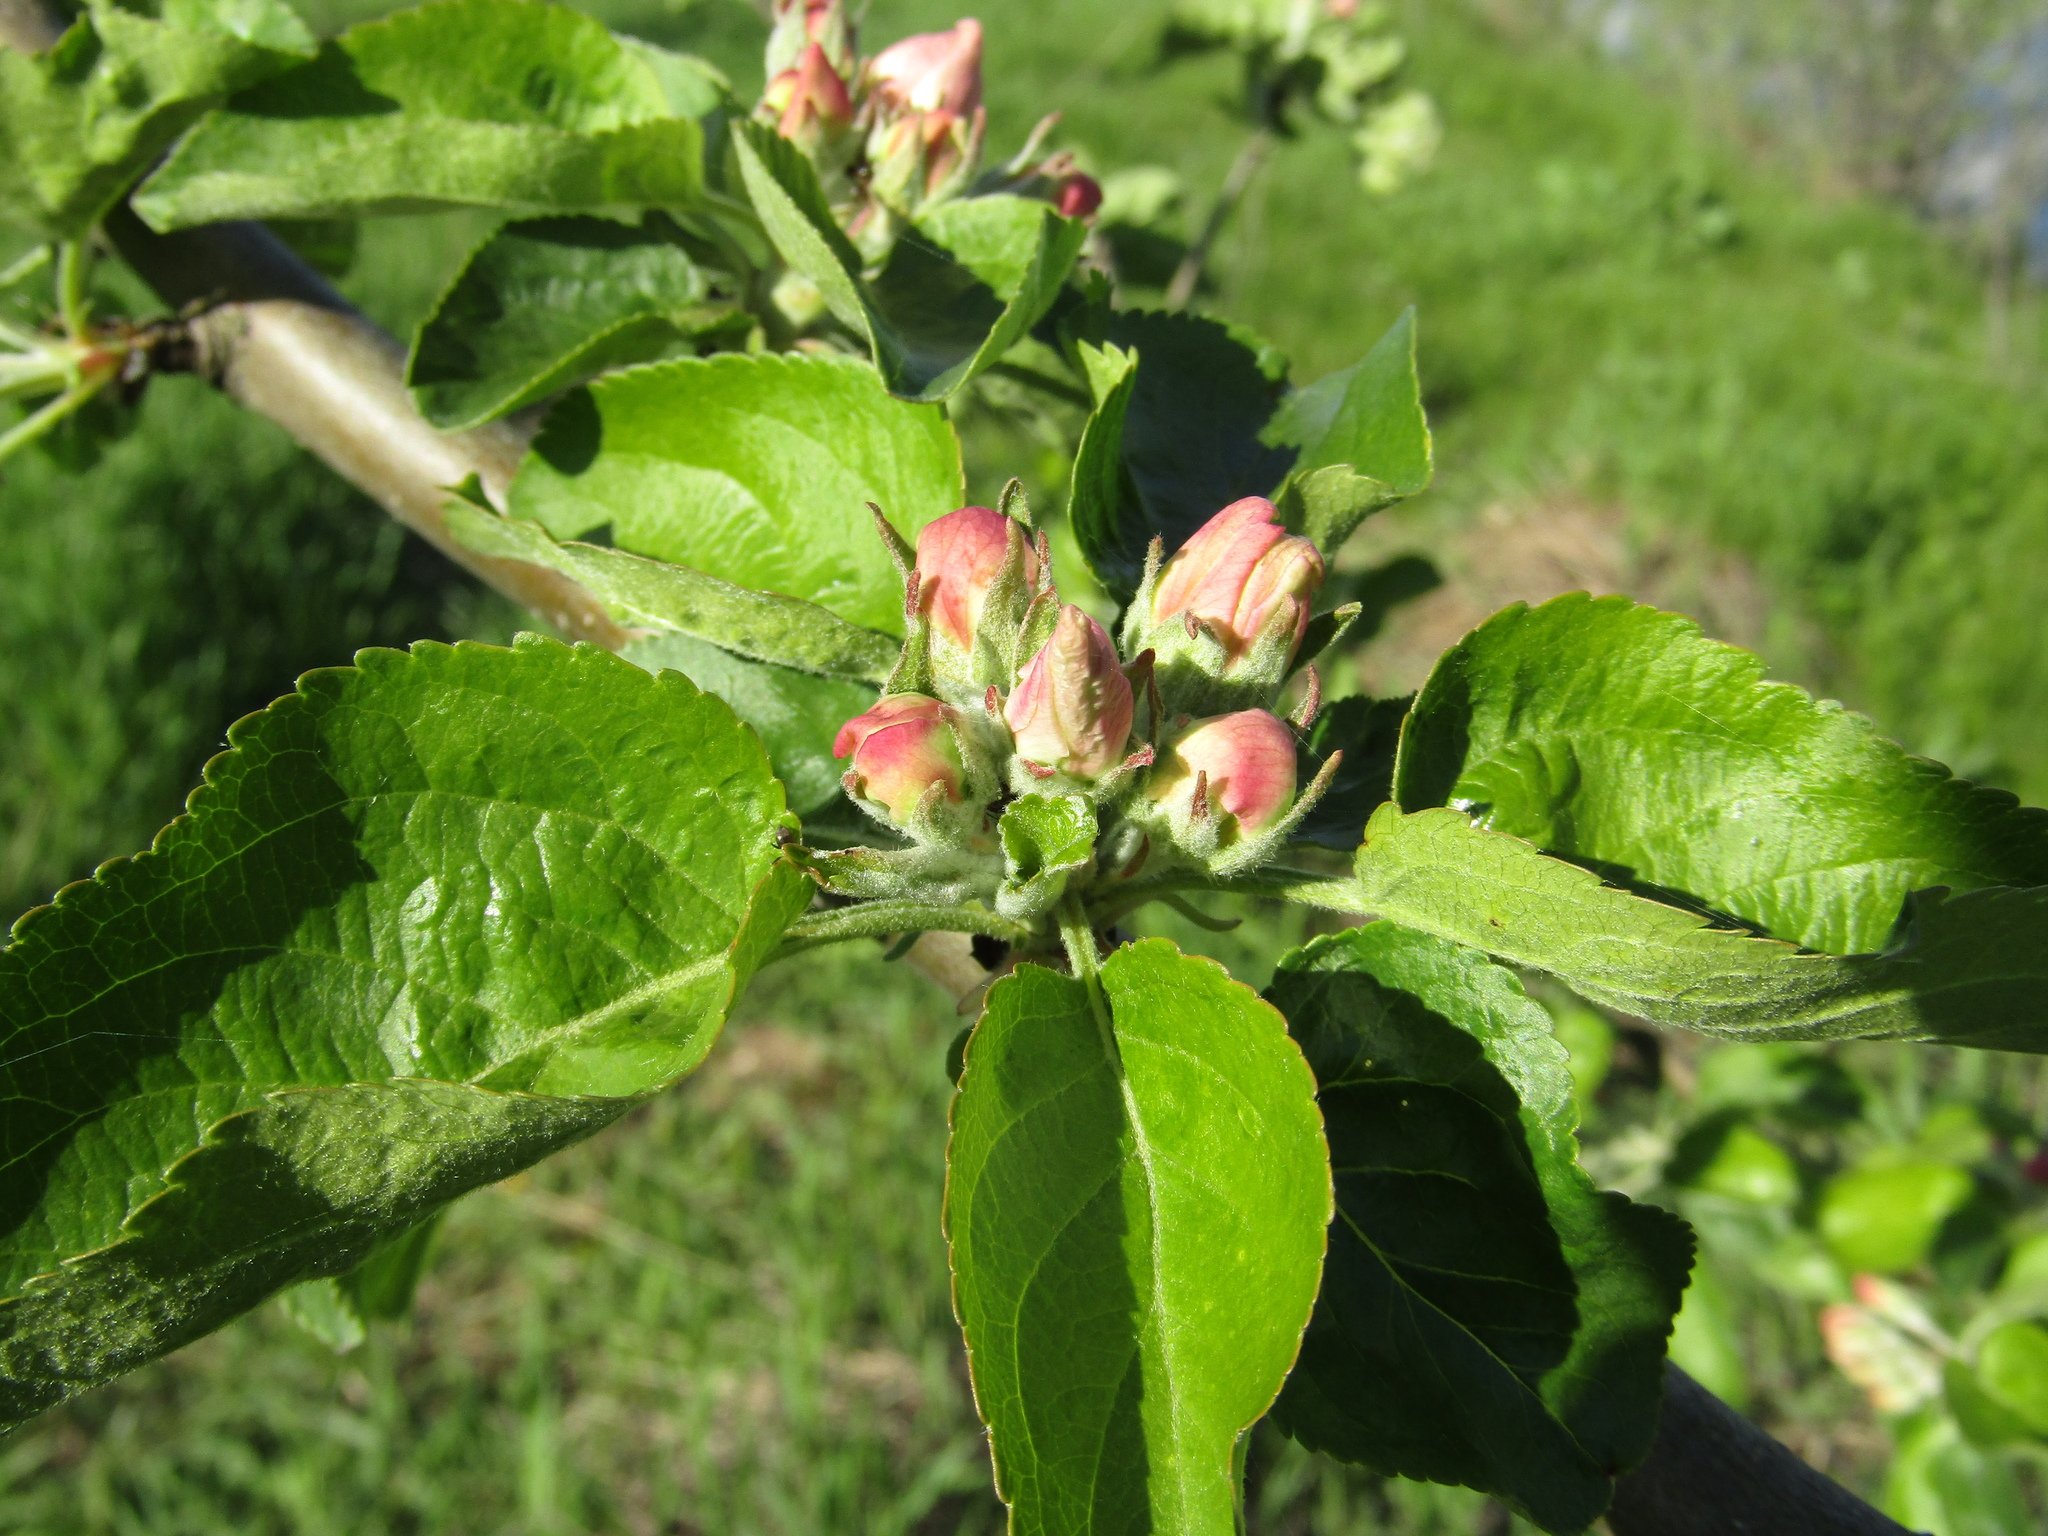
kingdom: Plantae
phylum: Tracheophyta
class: Magnoliopsida
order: Rosales
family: Rosaceae
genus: Malus
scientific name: Malus domestica
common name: Apple
